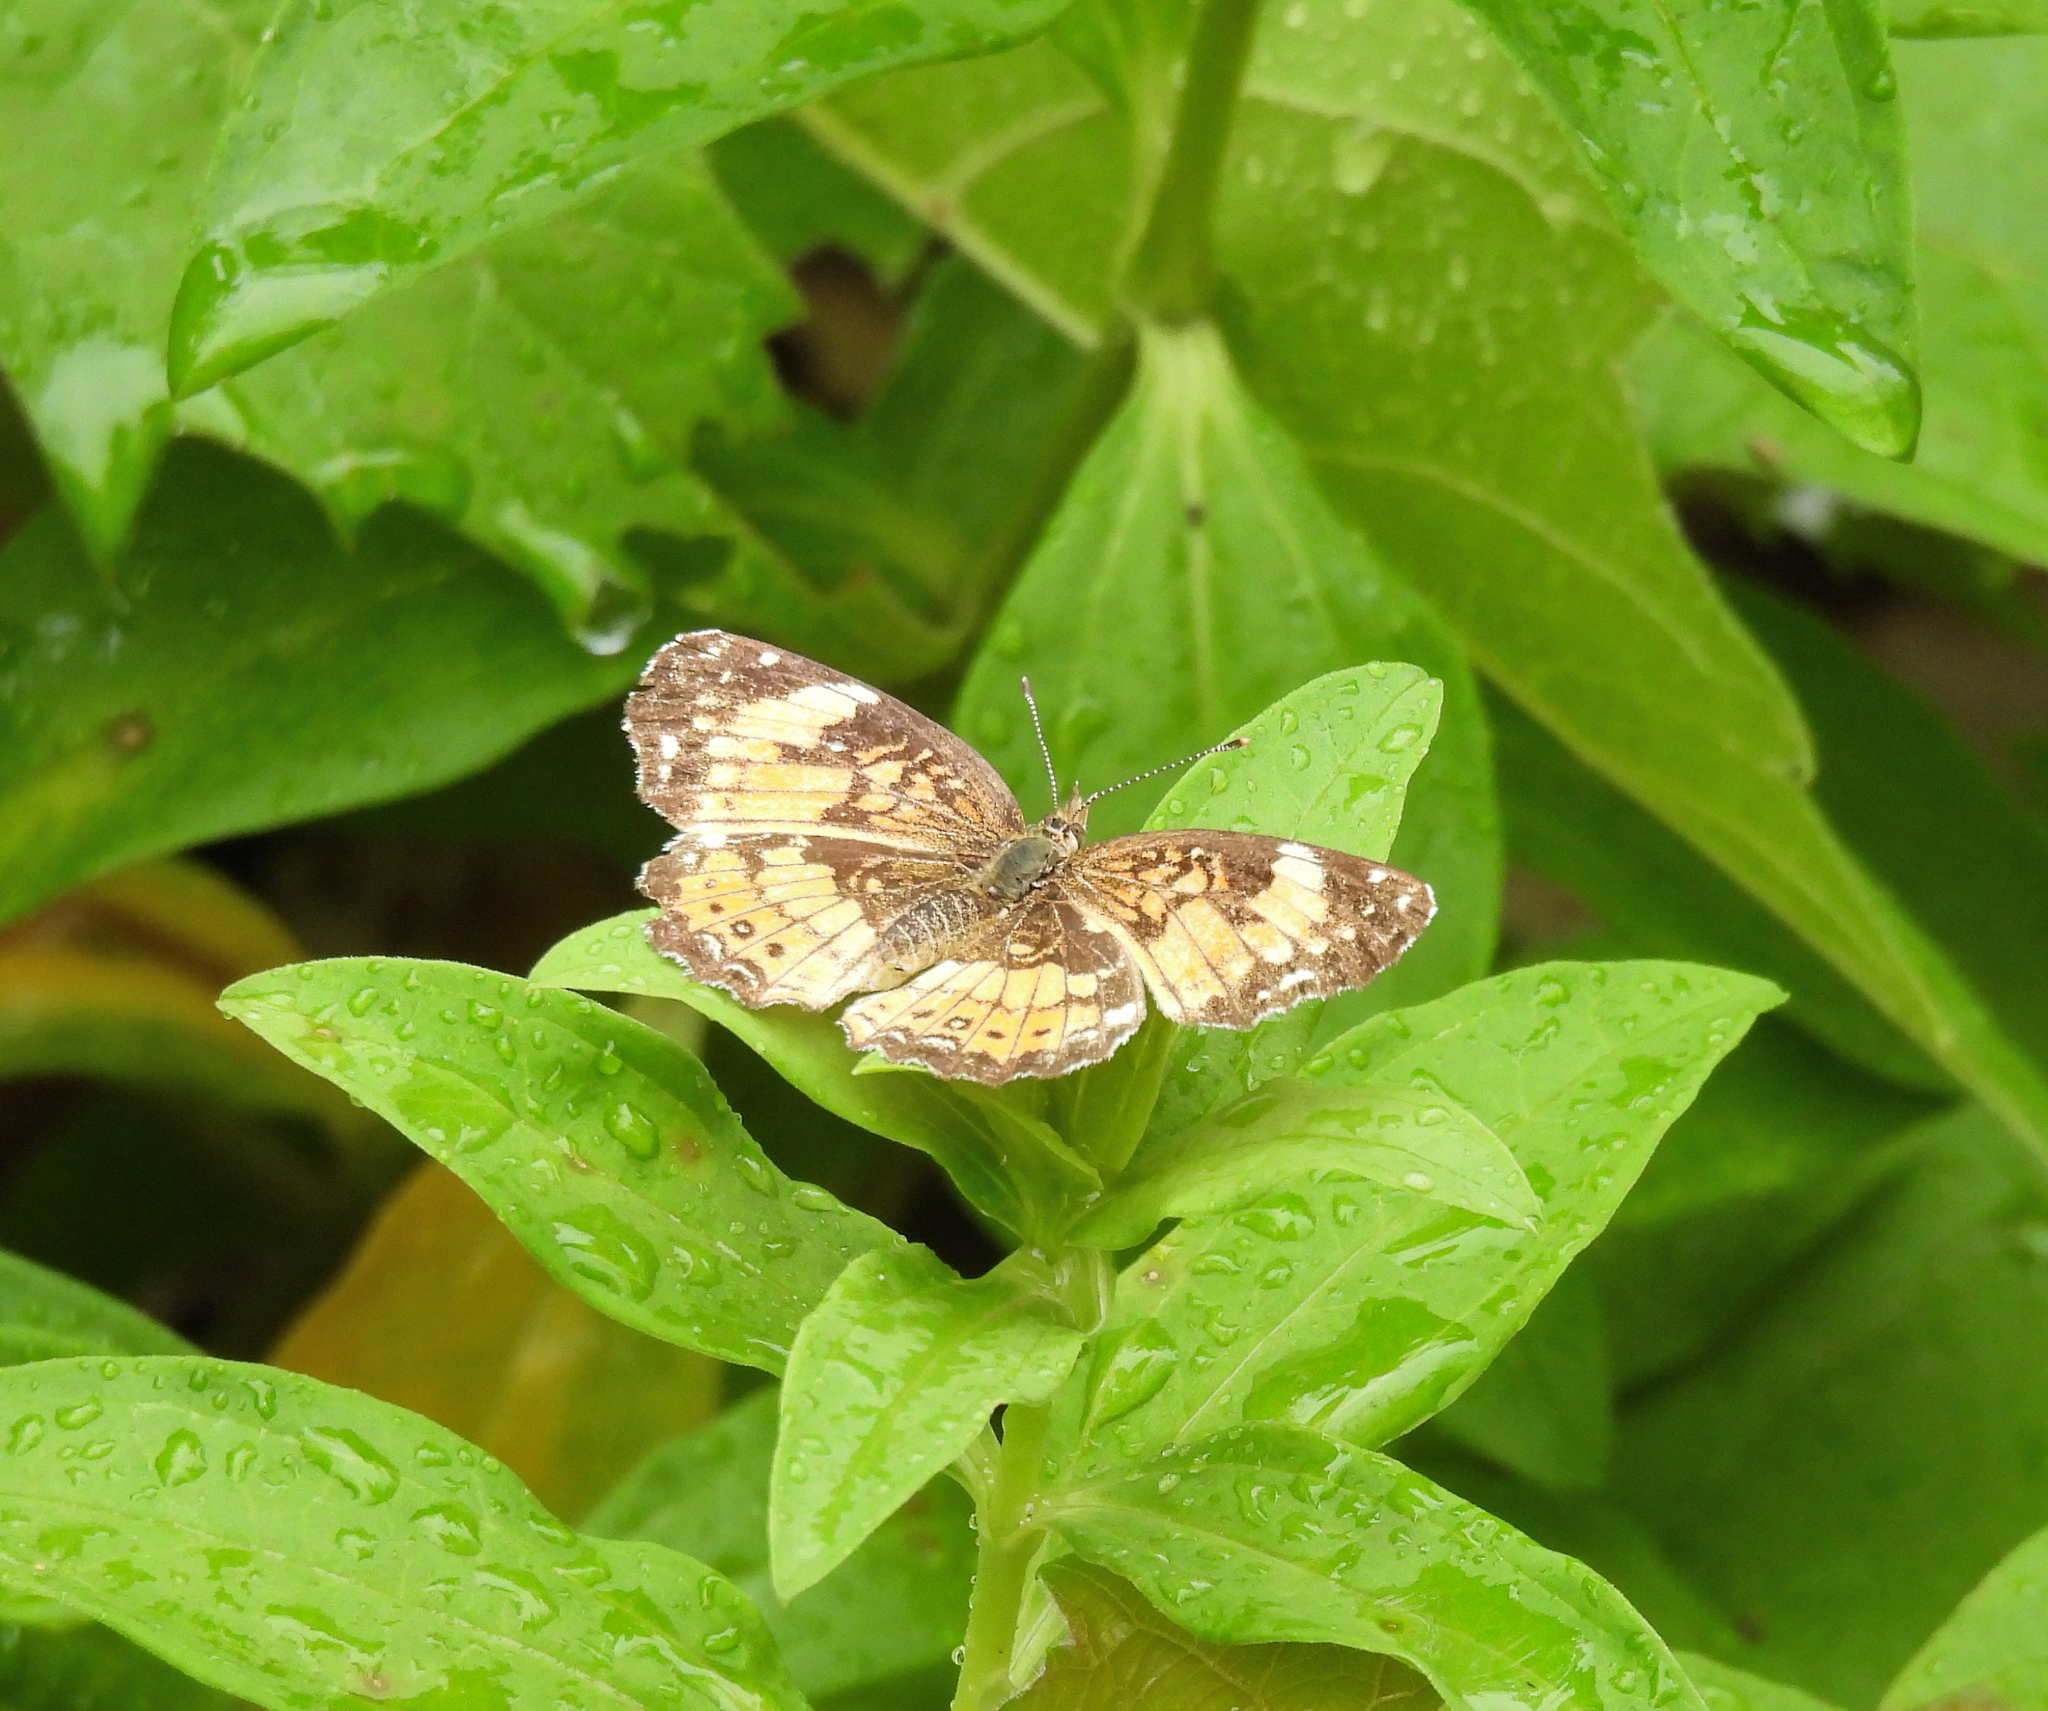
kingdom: Animalia
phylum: Arthropoda
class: Insecta
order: Lepidoptera
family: Nymphalidae
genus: Chlosyne
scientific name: Chlosyne nycteis
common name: Silvery checkerspot
